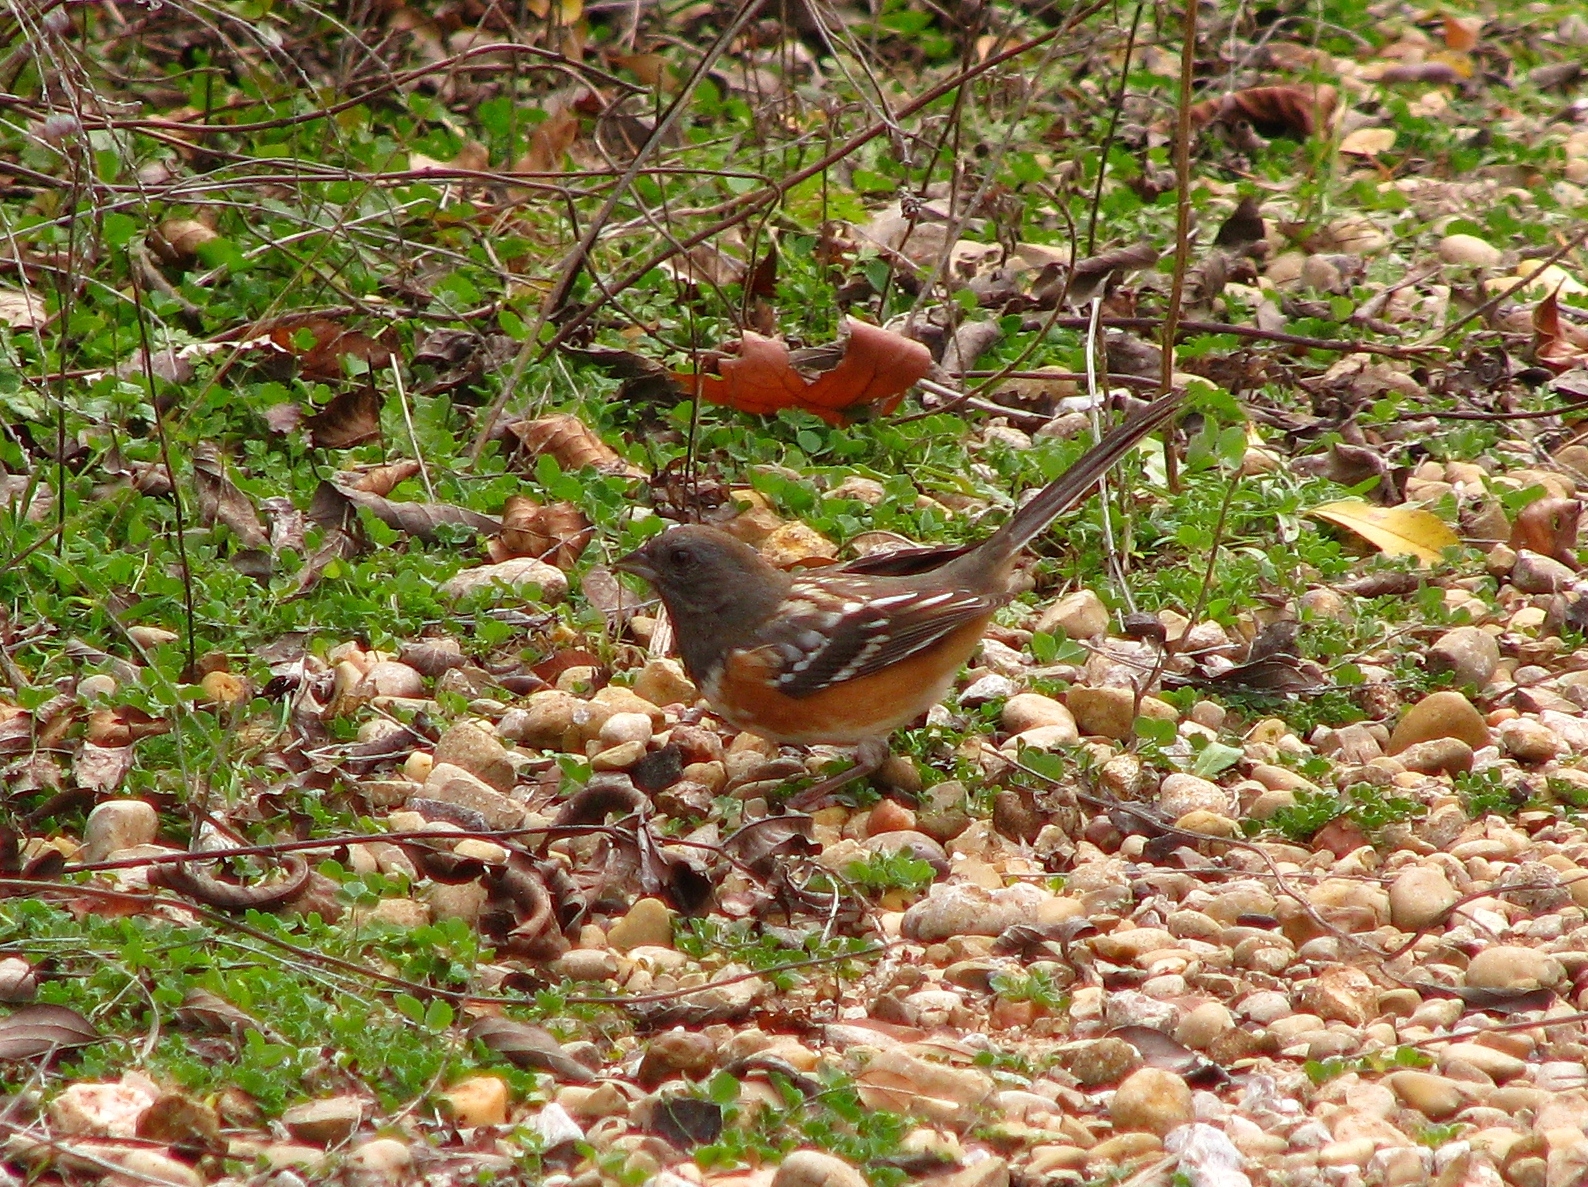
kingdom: Animalia
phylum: Chordata
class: Aves
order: Passeriformes
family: Passerellidae
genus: Pipilo
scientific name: Pipilo maculatus
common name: Spotted towhee
